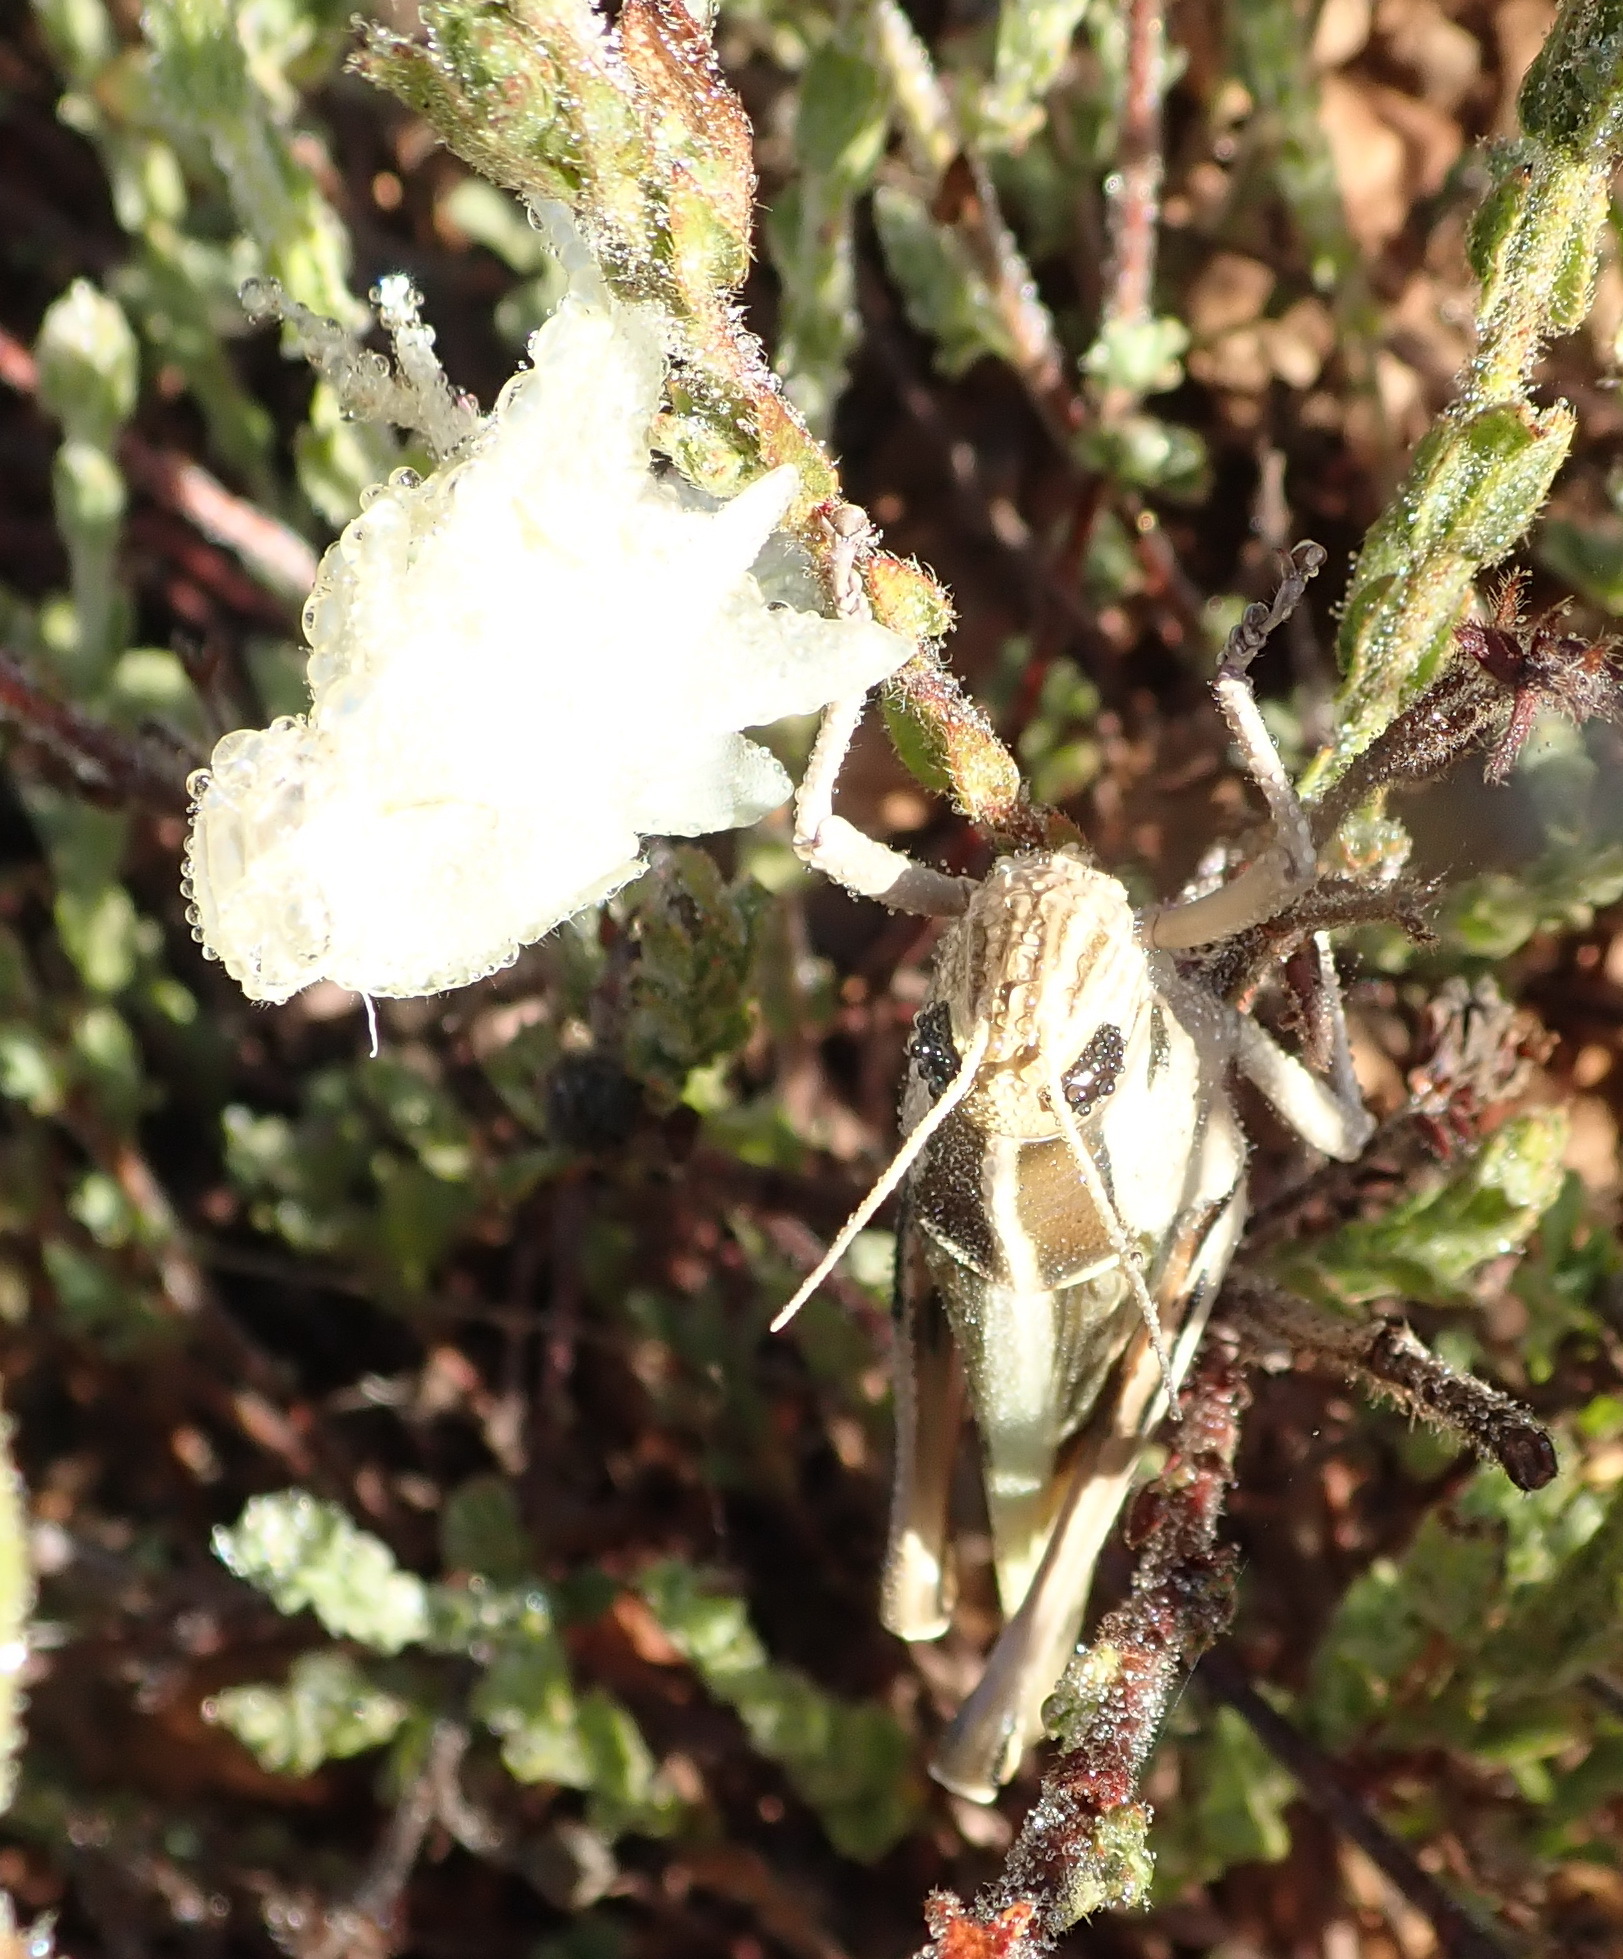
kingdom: Animalia
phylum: Arthropoda
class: Insecta
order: Orthoptera
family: Acrididae
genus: Acanthacris
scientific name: Acanthacris ruficornis
